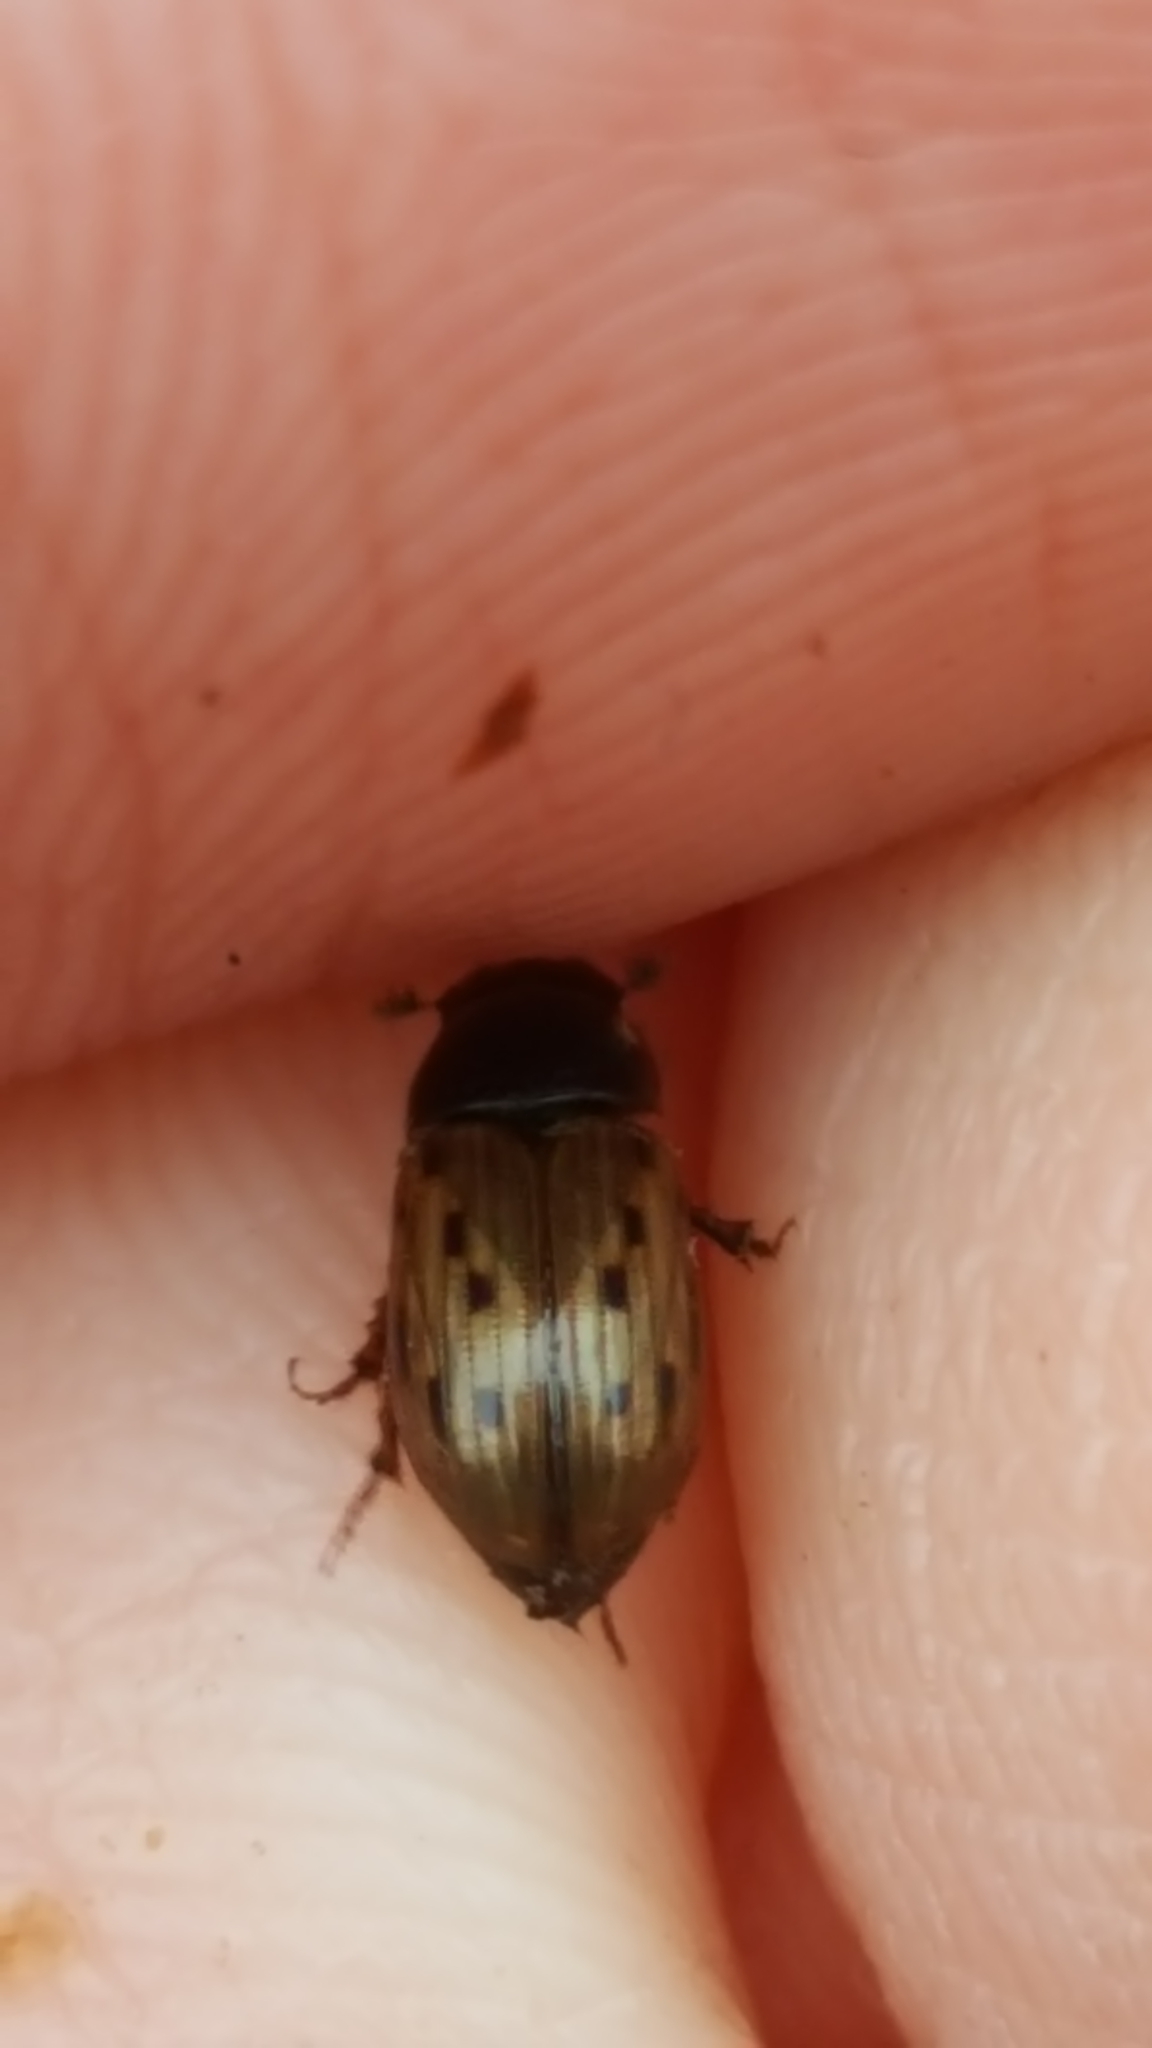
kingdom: Animalia
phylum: Arthropoda
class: Insecta
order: Coleoptera
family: Scarabaeidae
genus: Chilothorax
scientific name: Chilothorax conspurcatus
